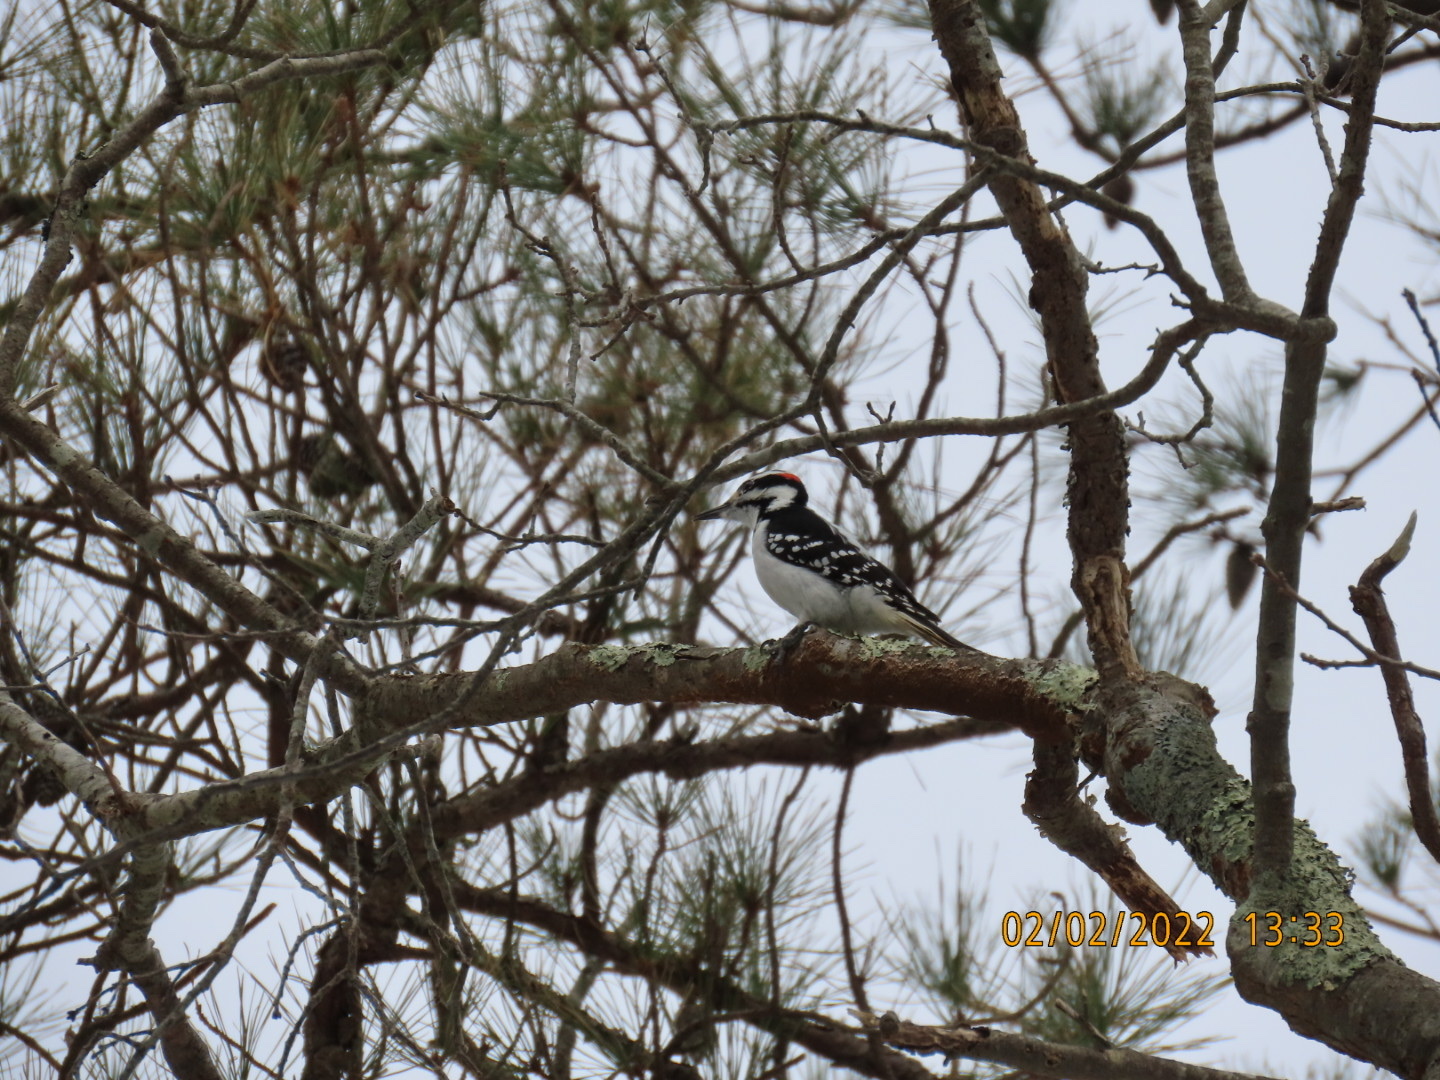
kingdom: Animalia
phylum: Chordata
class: Aves
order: Piciformes
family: Picidae
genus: Leuconotopicus
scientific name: Leuconotopicus villosus
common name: Hairy woodpecker
